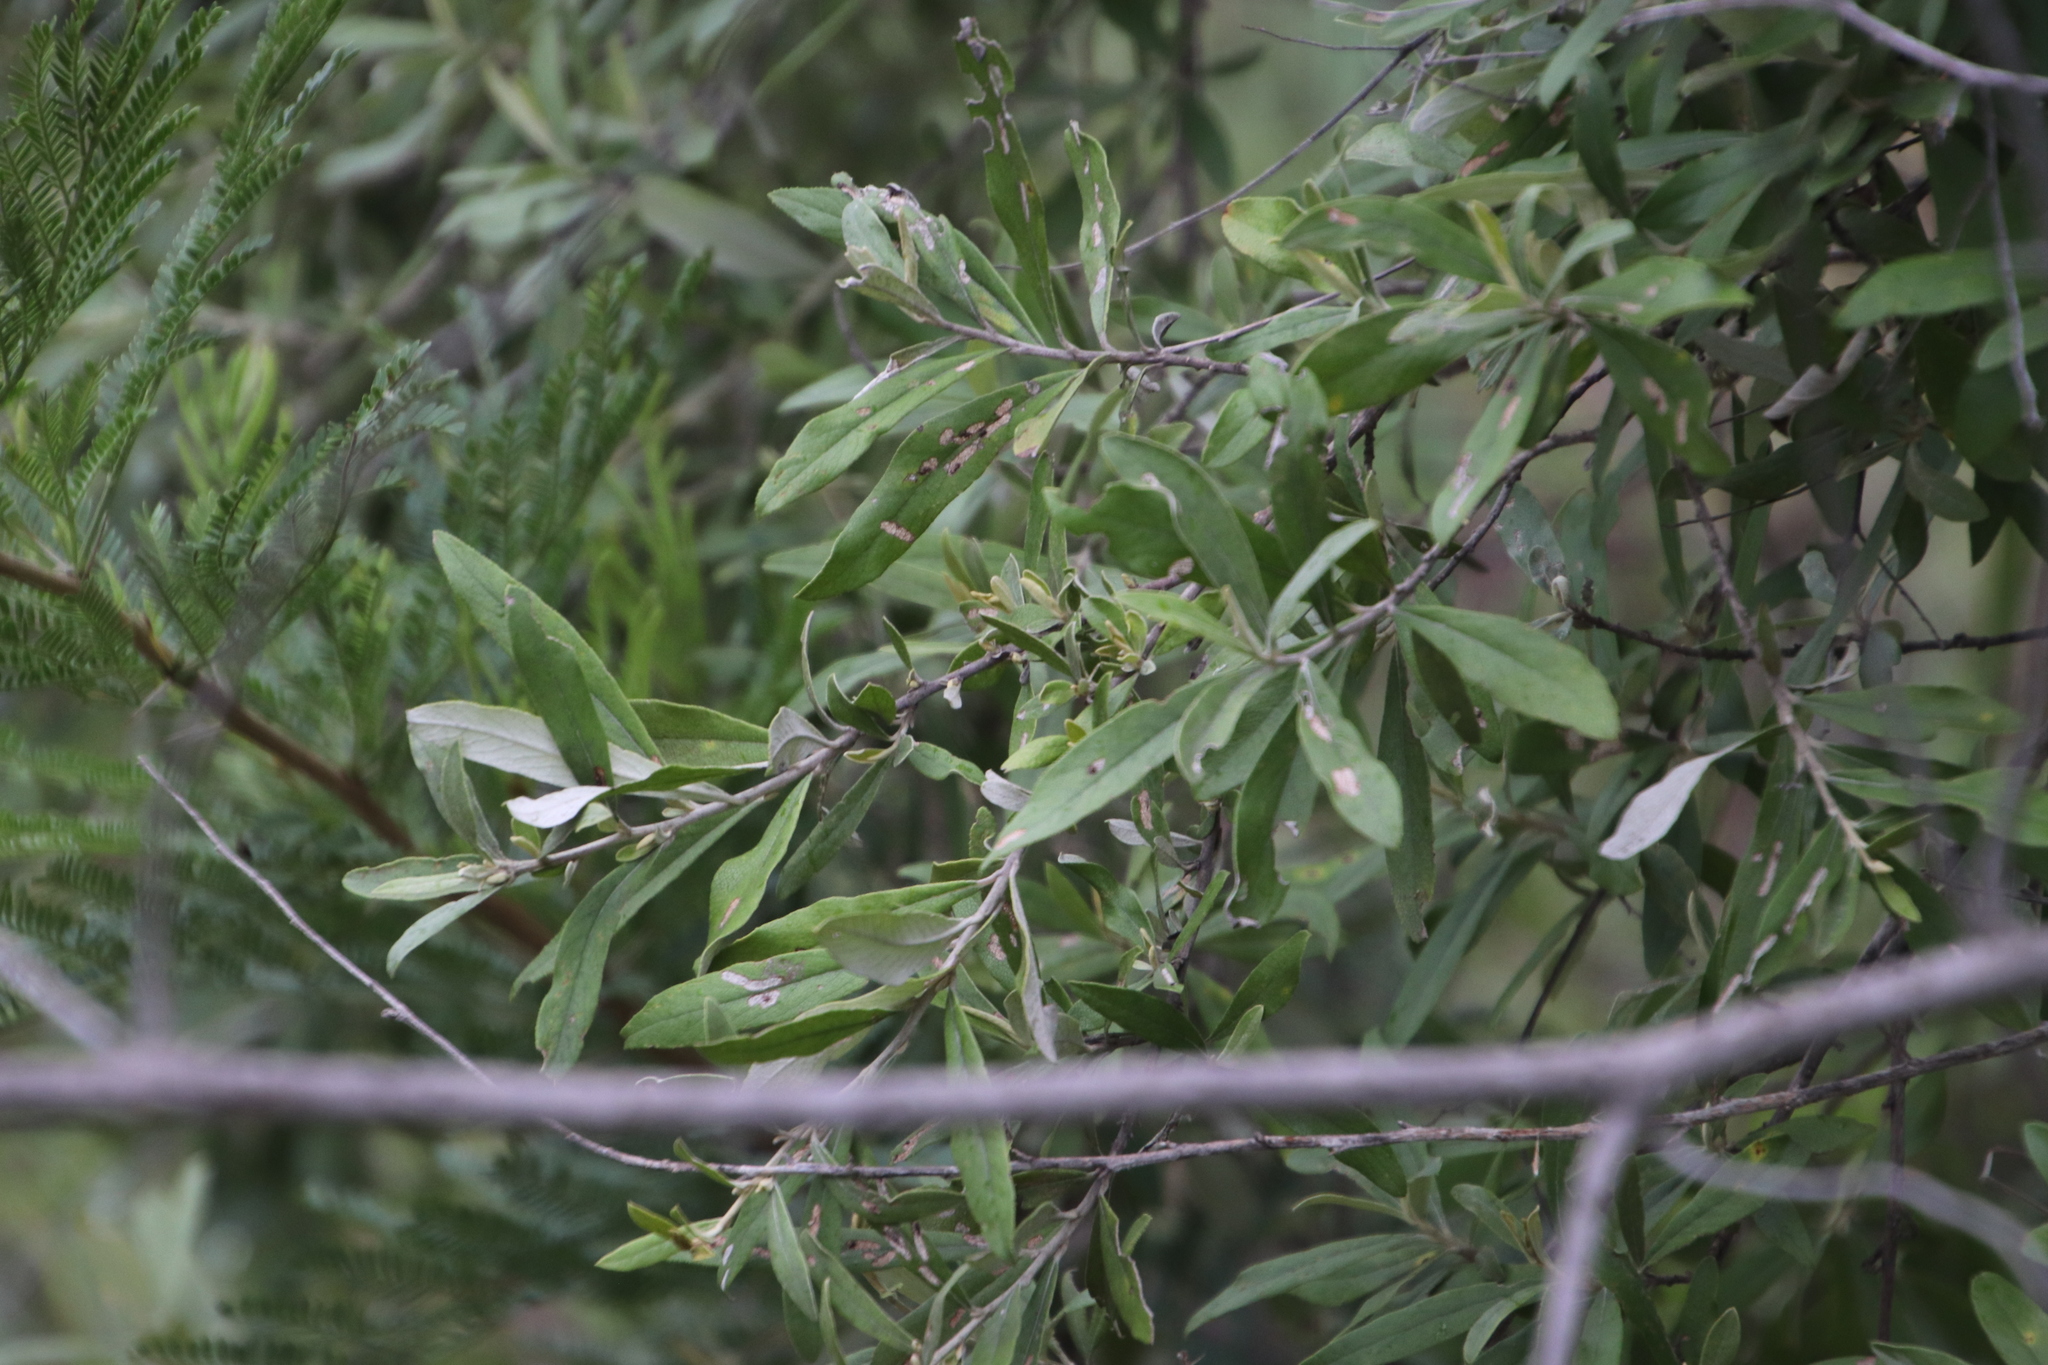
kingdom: Plantae
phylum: Tracheophyta
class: Magnoliopsida
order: Asterales
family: Asteraceae
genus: Tarchonanthus
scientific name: Tarchonanthus parvicapitulatus
